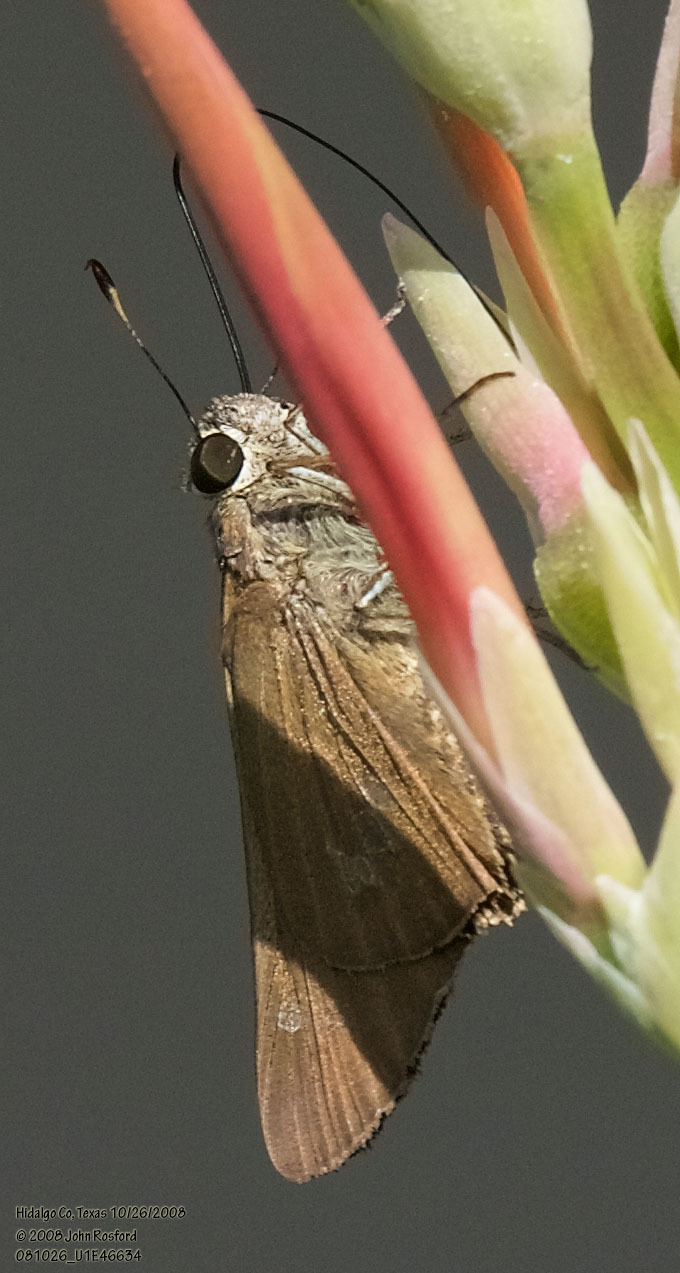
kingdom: Animalia
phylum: Arthropoda
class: Insecta
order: Lepidoptera
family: Hesperiidae
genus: Calpodes
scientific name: Calpodes ethlius
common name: Brazilian skipper
